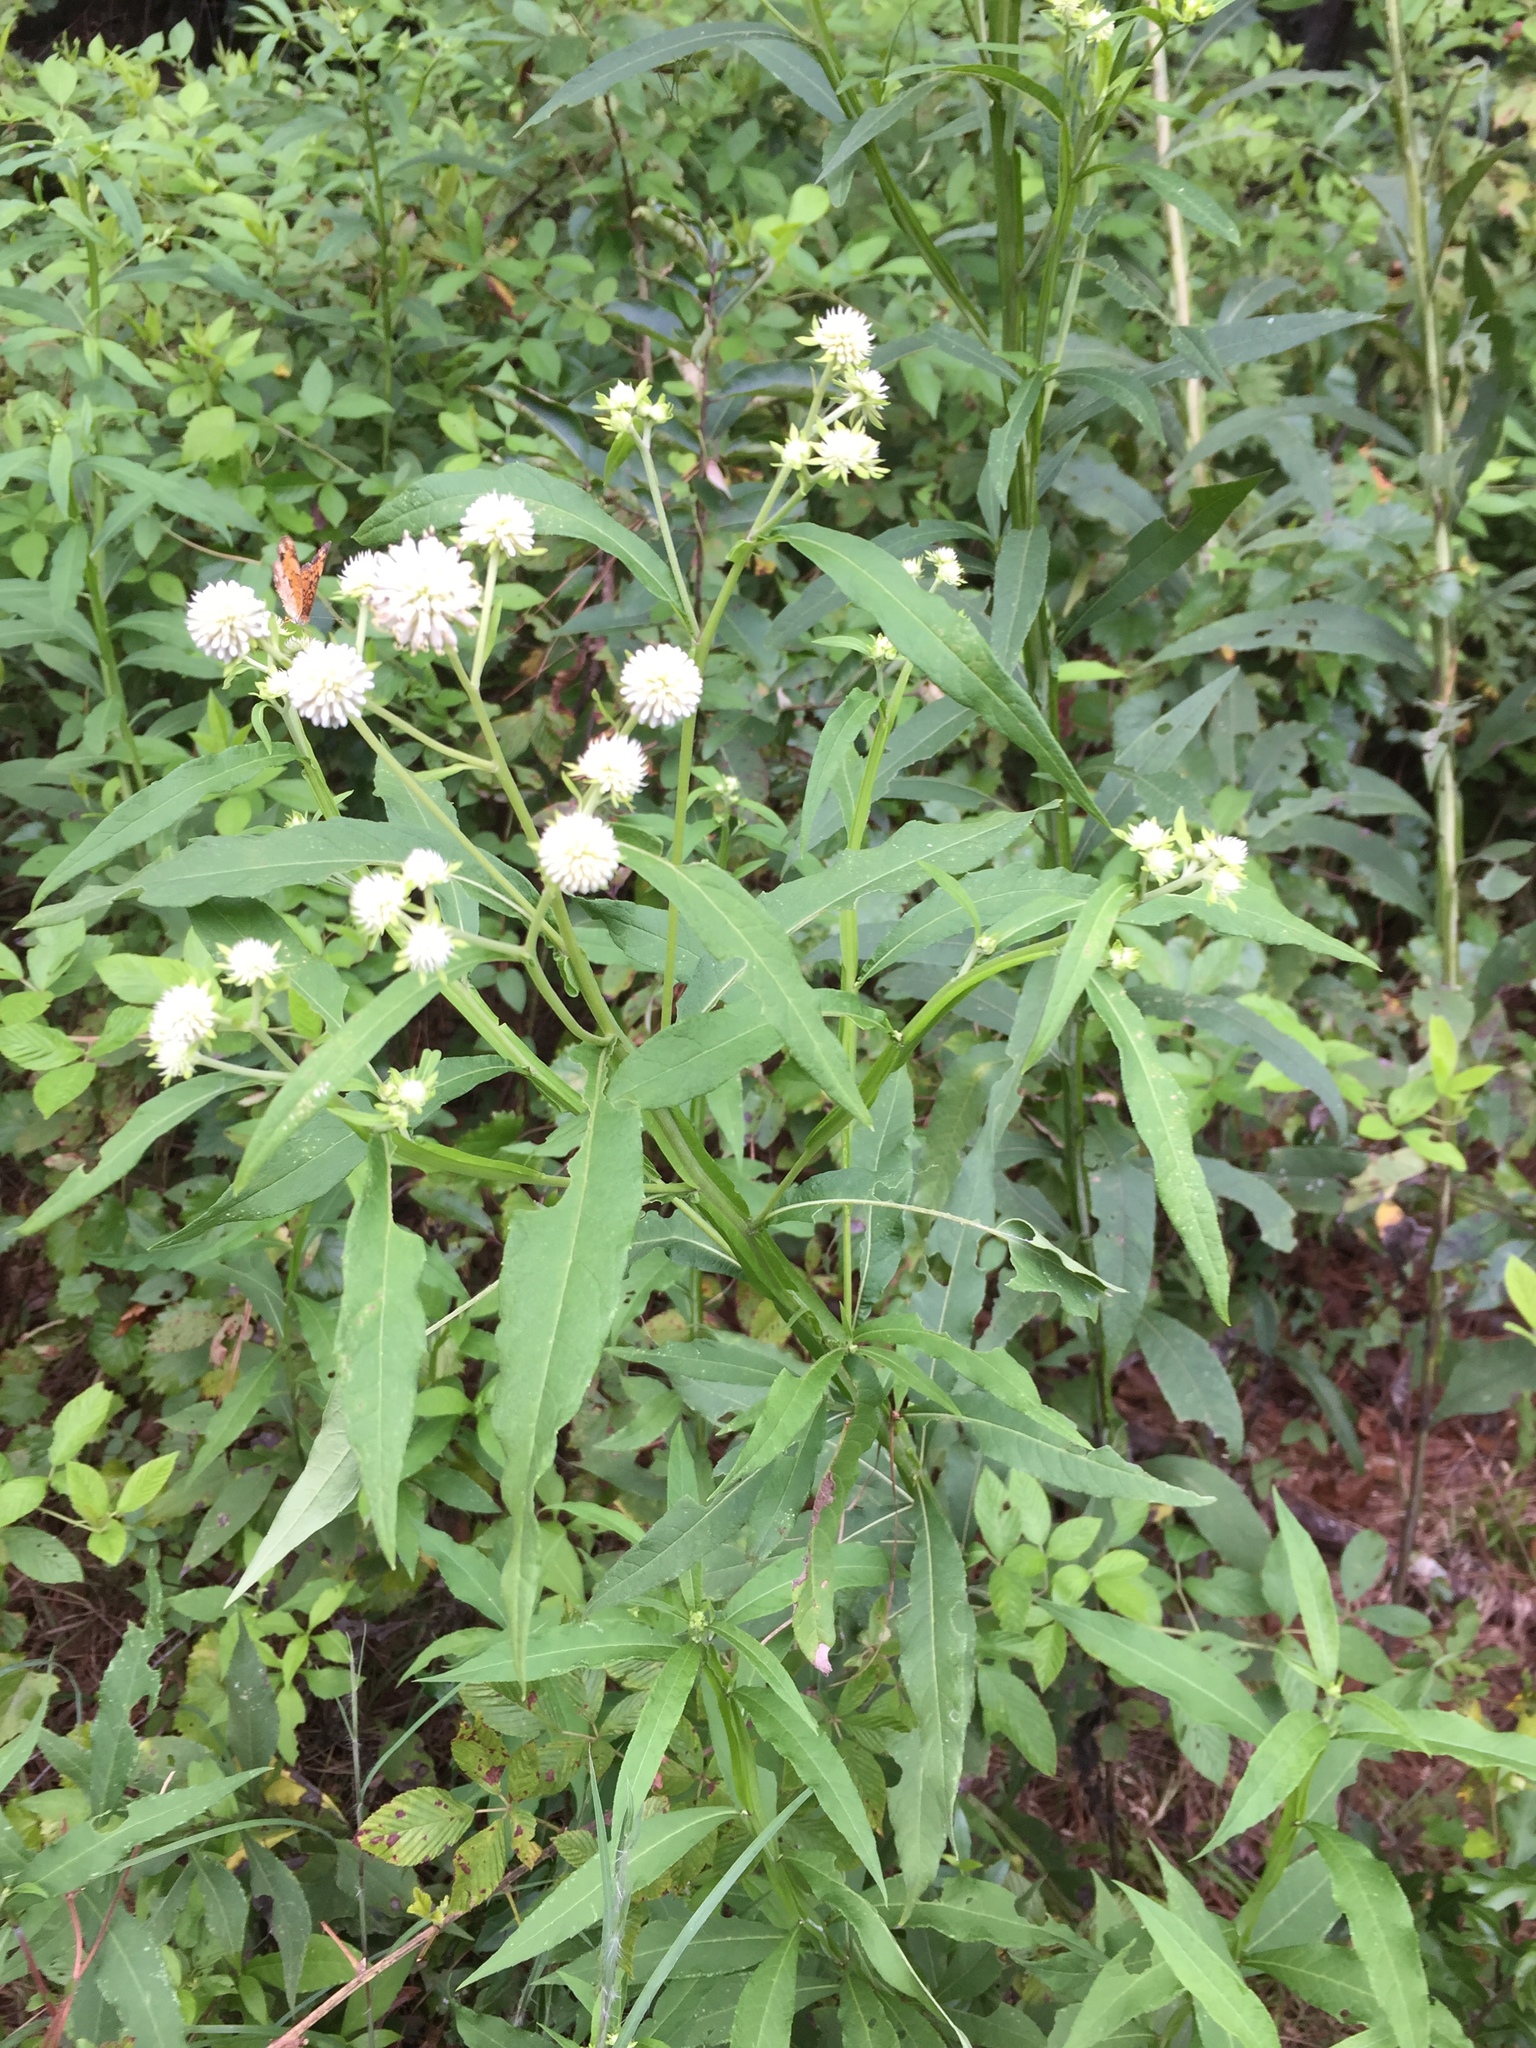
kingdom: Plantae
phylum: Tracheophyta
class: Magnoliopsida
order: Asterales
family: Asteraceae
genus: Verbesina
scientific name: Verbesina walteri
